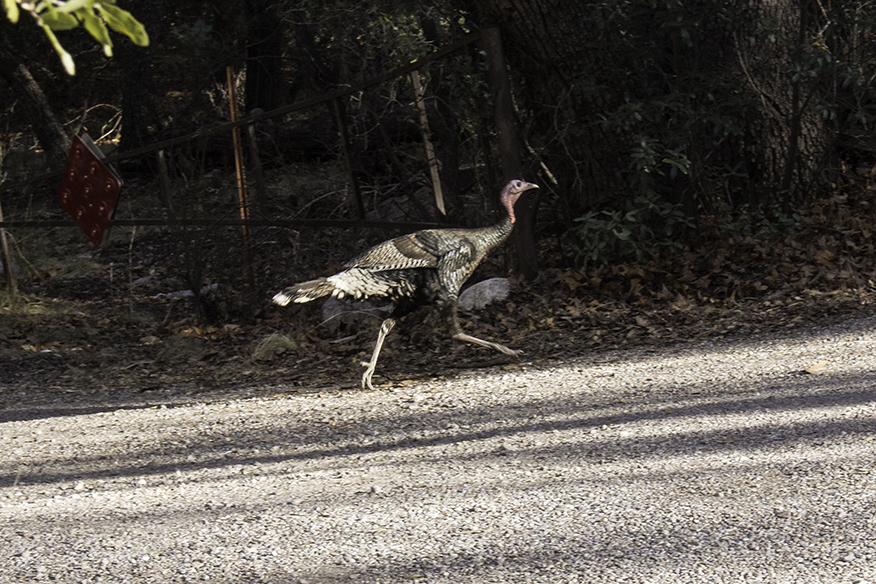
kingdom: Animalia
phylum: Chordata
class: Aves
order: Galliformes
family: Phasianidae
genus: Meleagris
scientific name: Meleagris gallopavo
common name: Wild turkey
